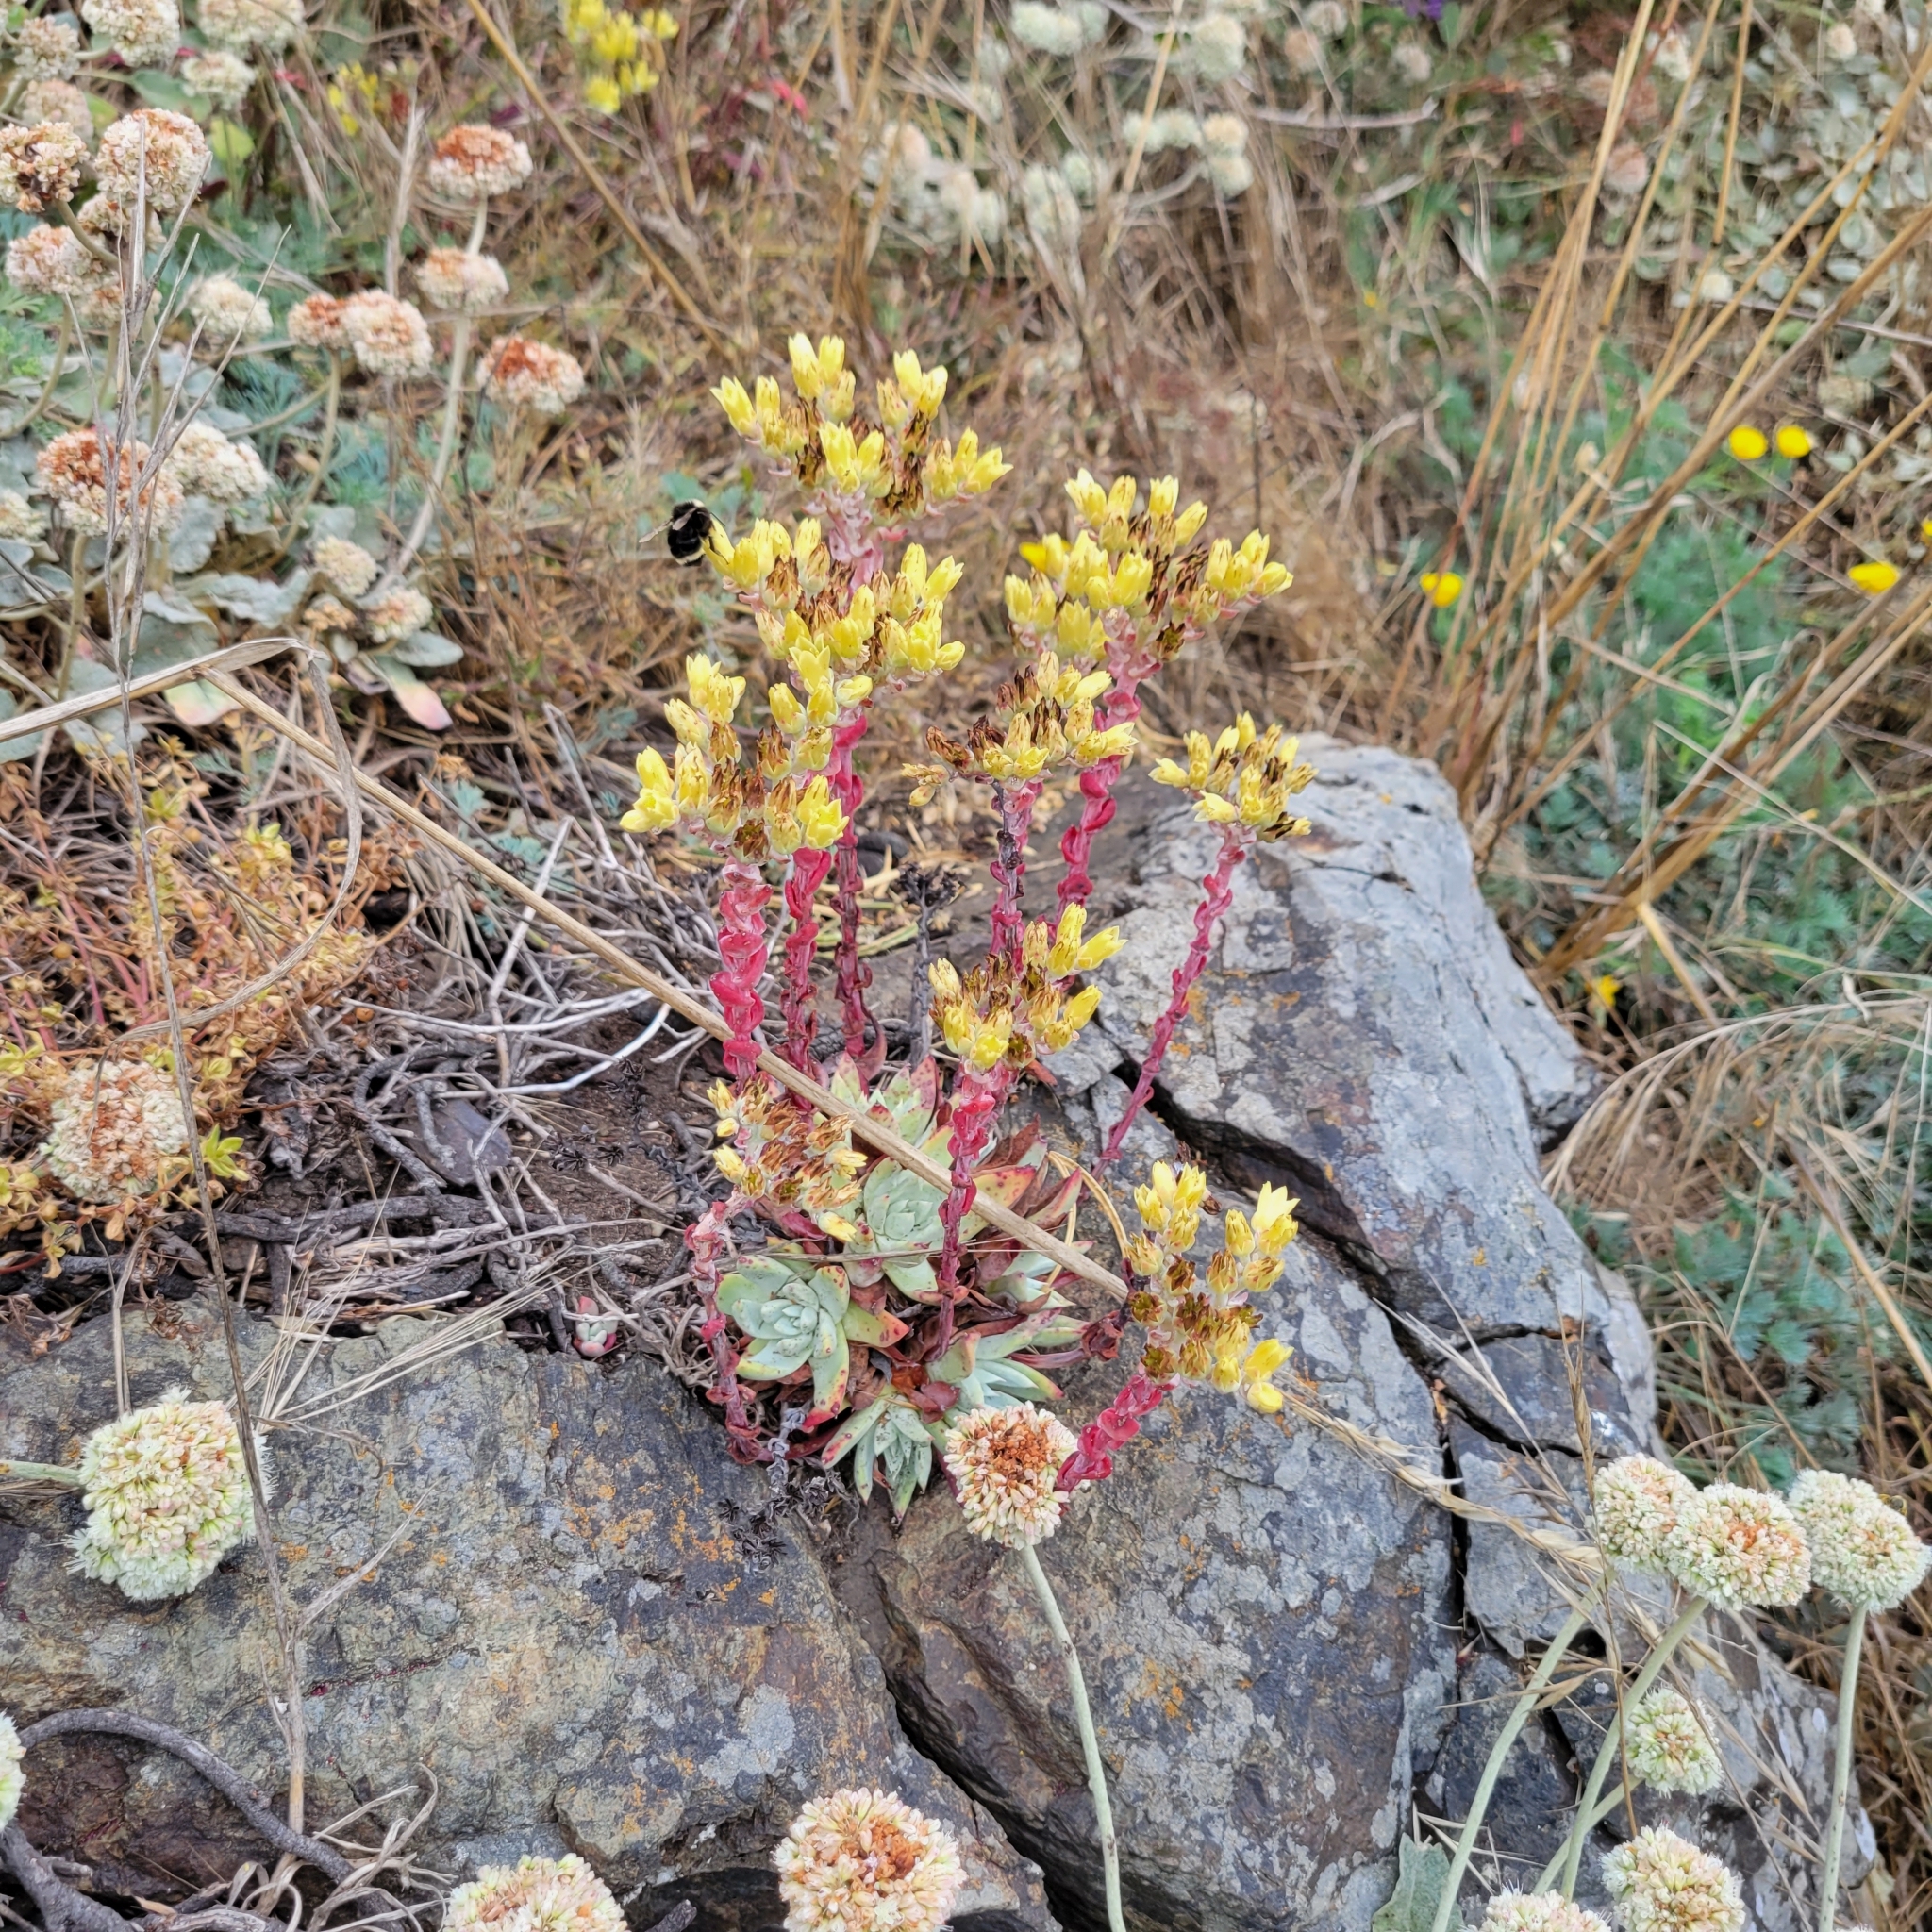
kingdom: Plantae
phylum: Tracheophyta
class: Magnoliopsida
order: Saxifragales
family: Crassulaceae
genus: Dudleya
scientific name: Dudleya farinosa
